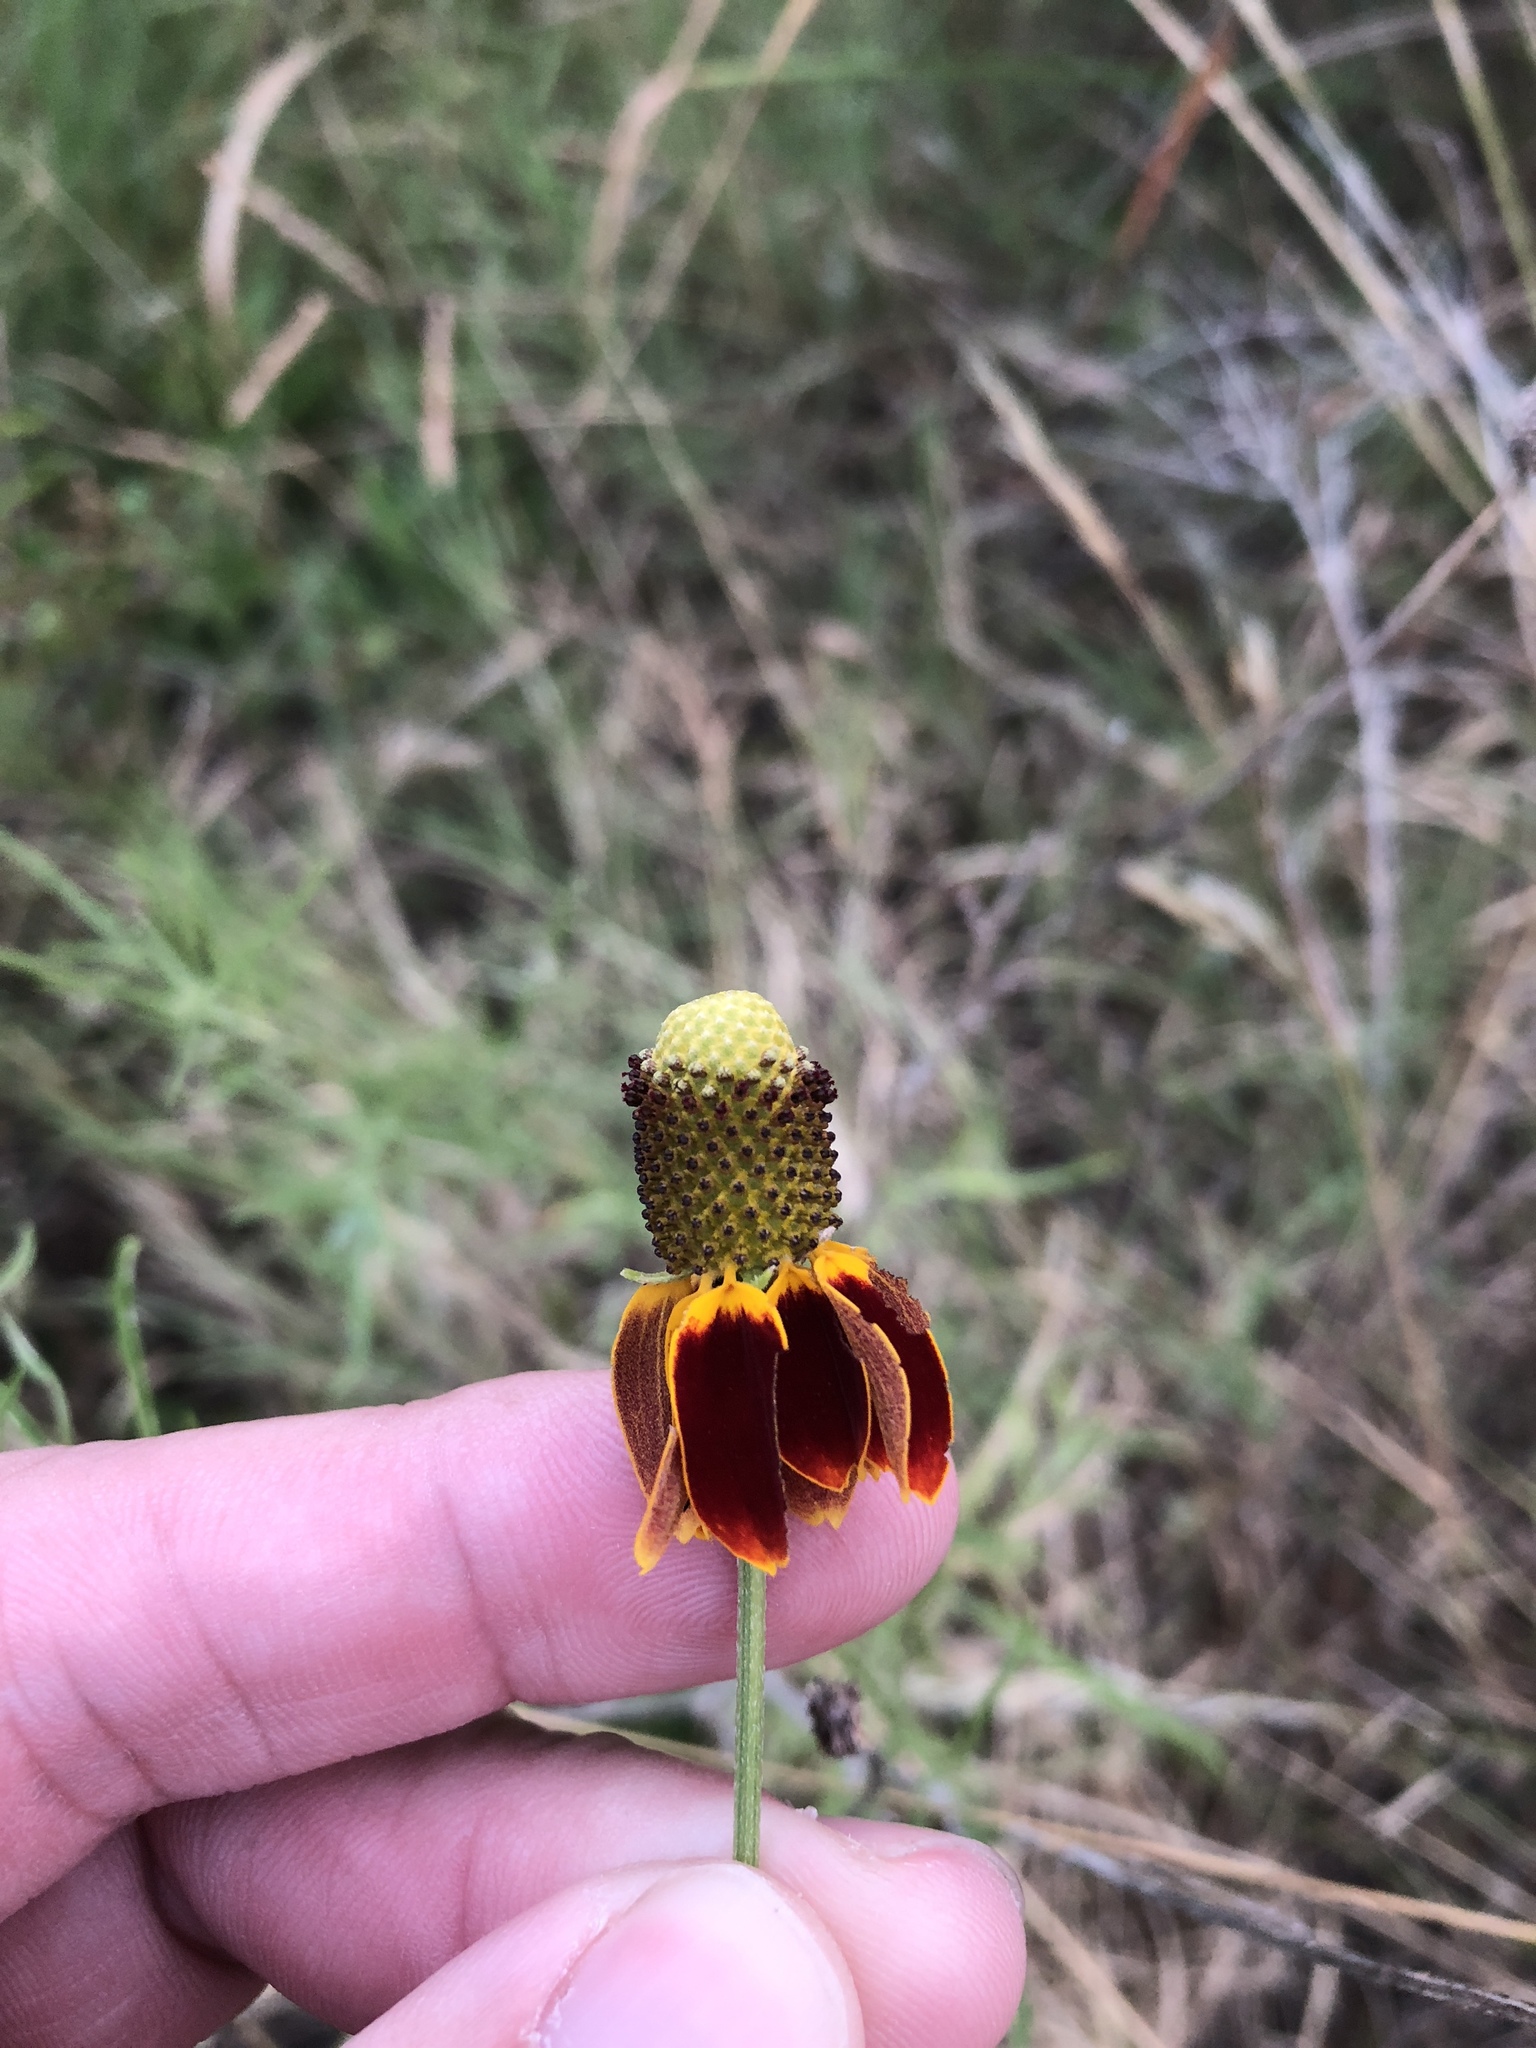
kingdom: Plantae
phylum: Tracheophyta
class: Magnoliopsida
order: Asterales
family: Asteraceae
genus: Ratibida
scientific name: Ratibida columnifera
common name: Prairie coneflower
